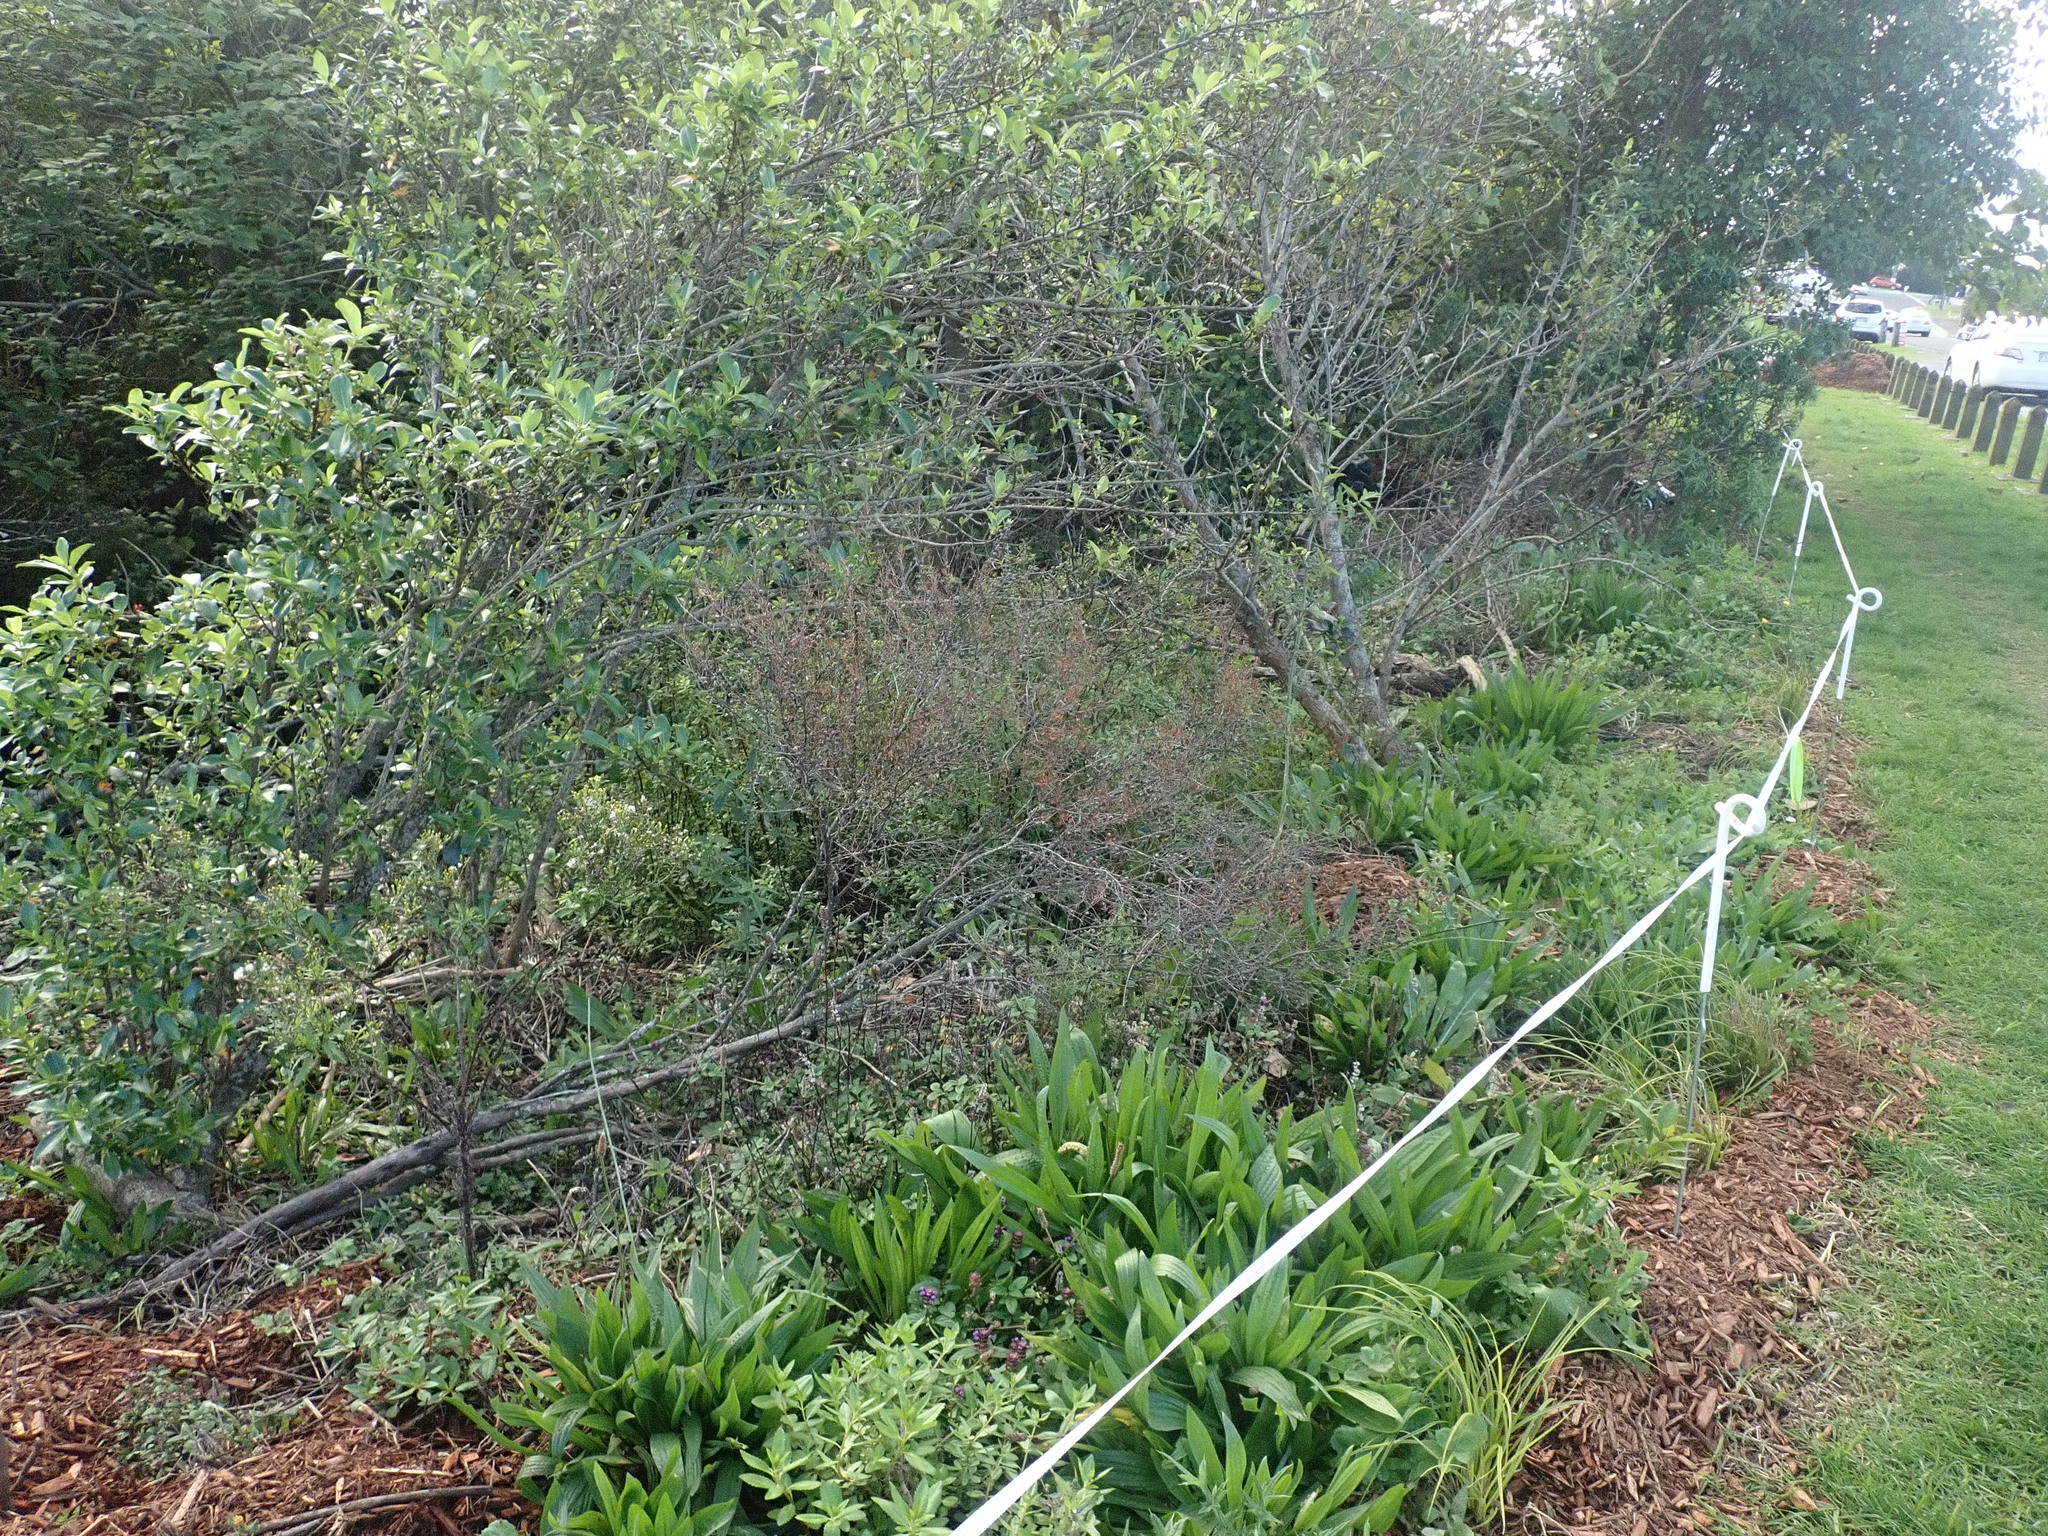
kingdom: Plantae
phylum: Tracheophyta
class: Magnoliopsida
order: Lamiales
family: Plantaginaceae
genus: Plantago
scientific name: Plantago lanceolata
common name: Ribwort plantain
